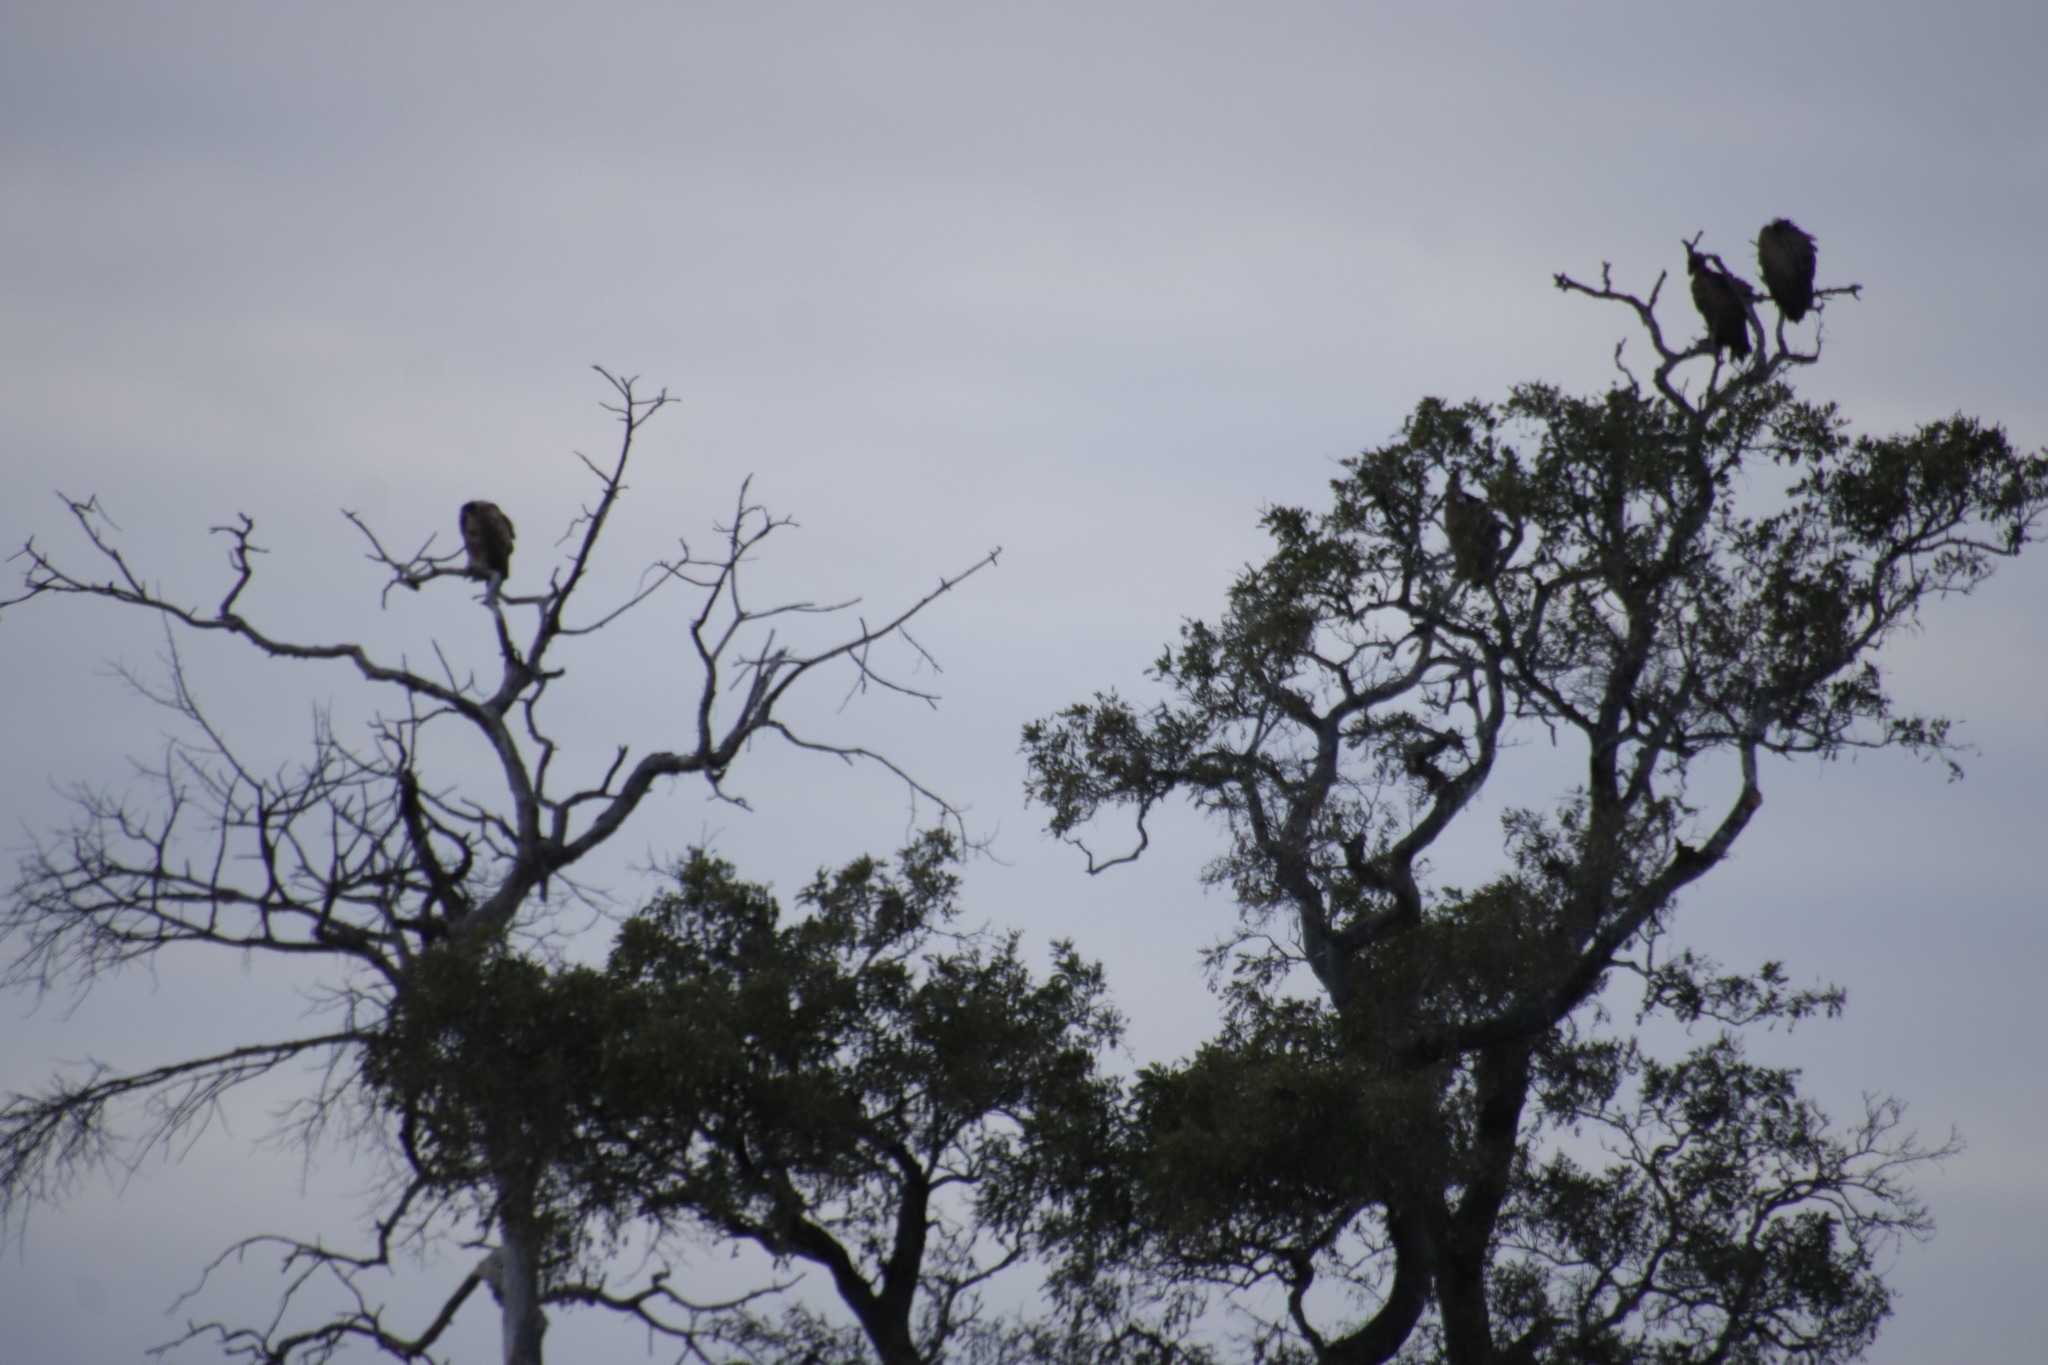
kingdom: Animalia
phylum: Chordata
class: Aves
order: Accipitriformes
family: Accipitridae
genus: Gyps
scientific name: Gyps africanus
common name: White-backed vulture
